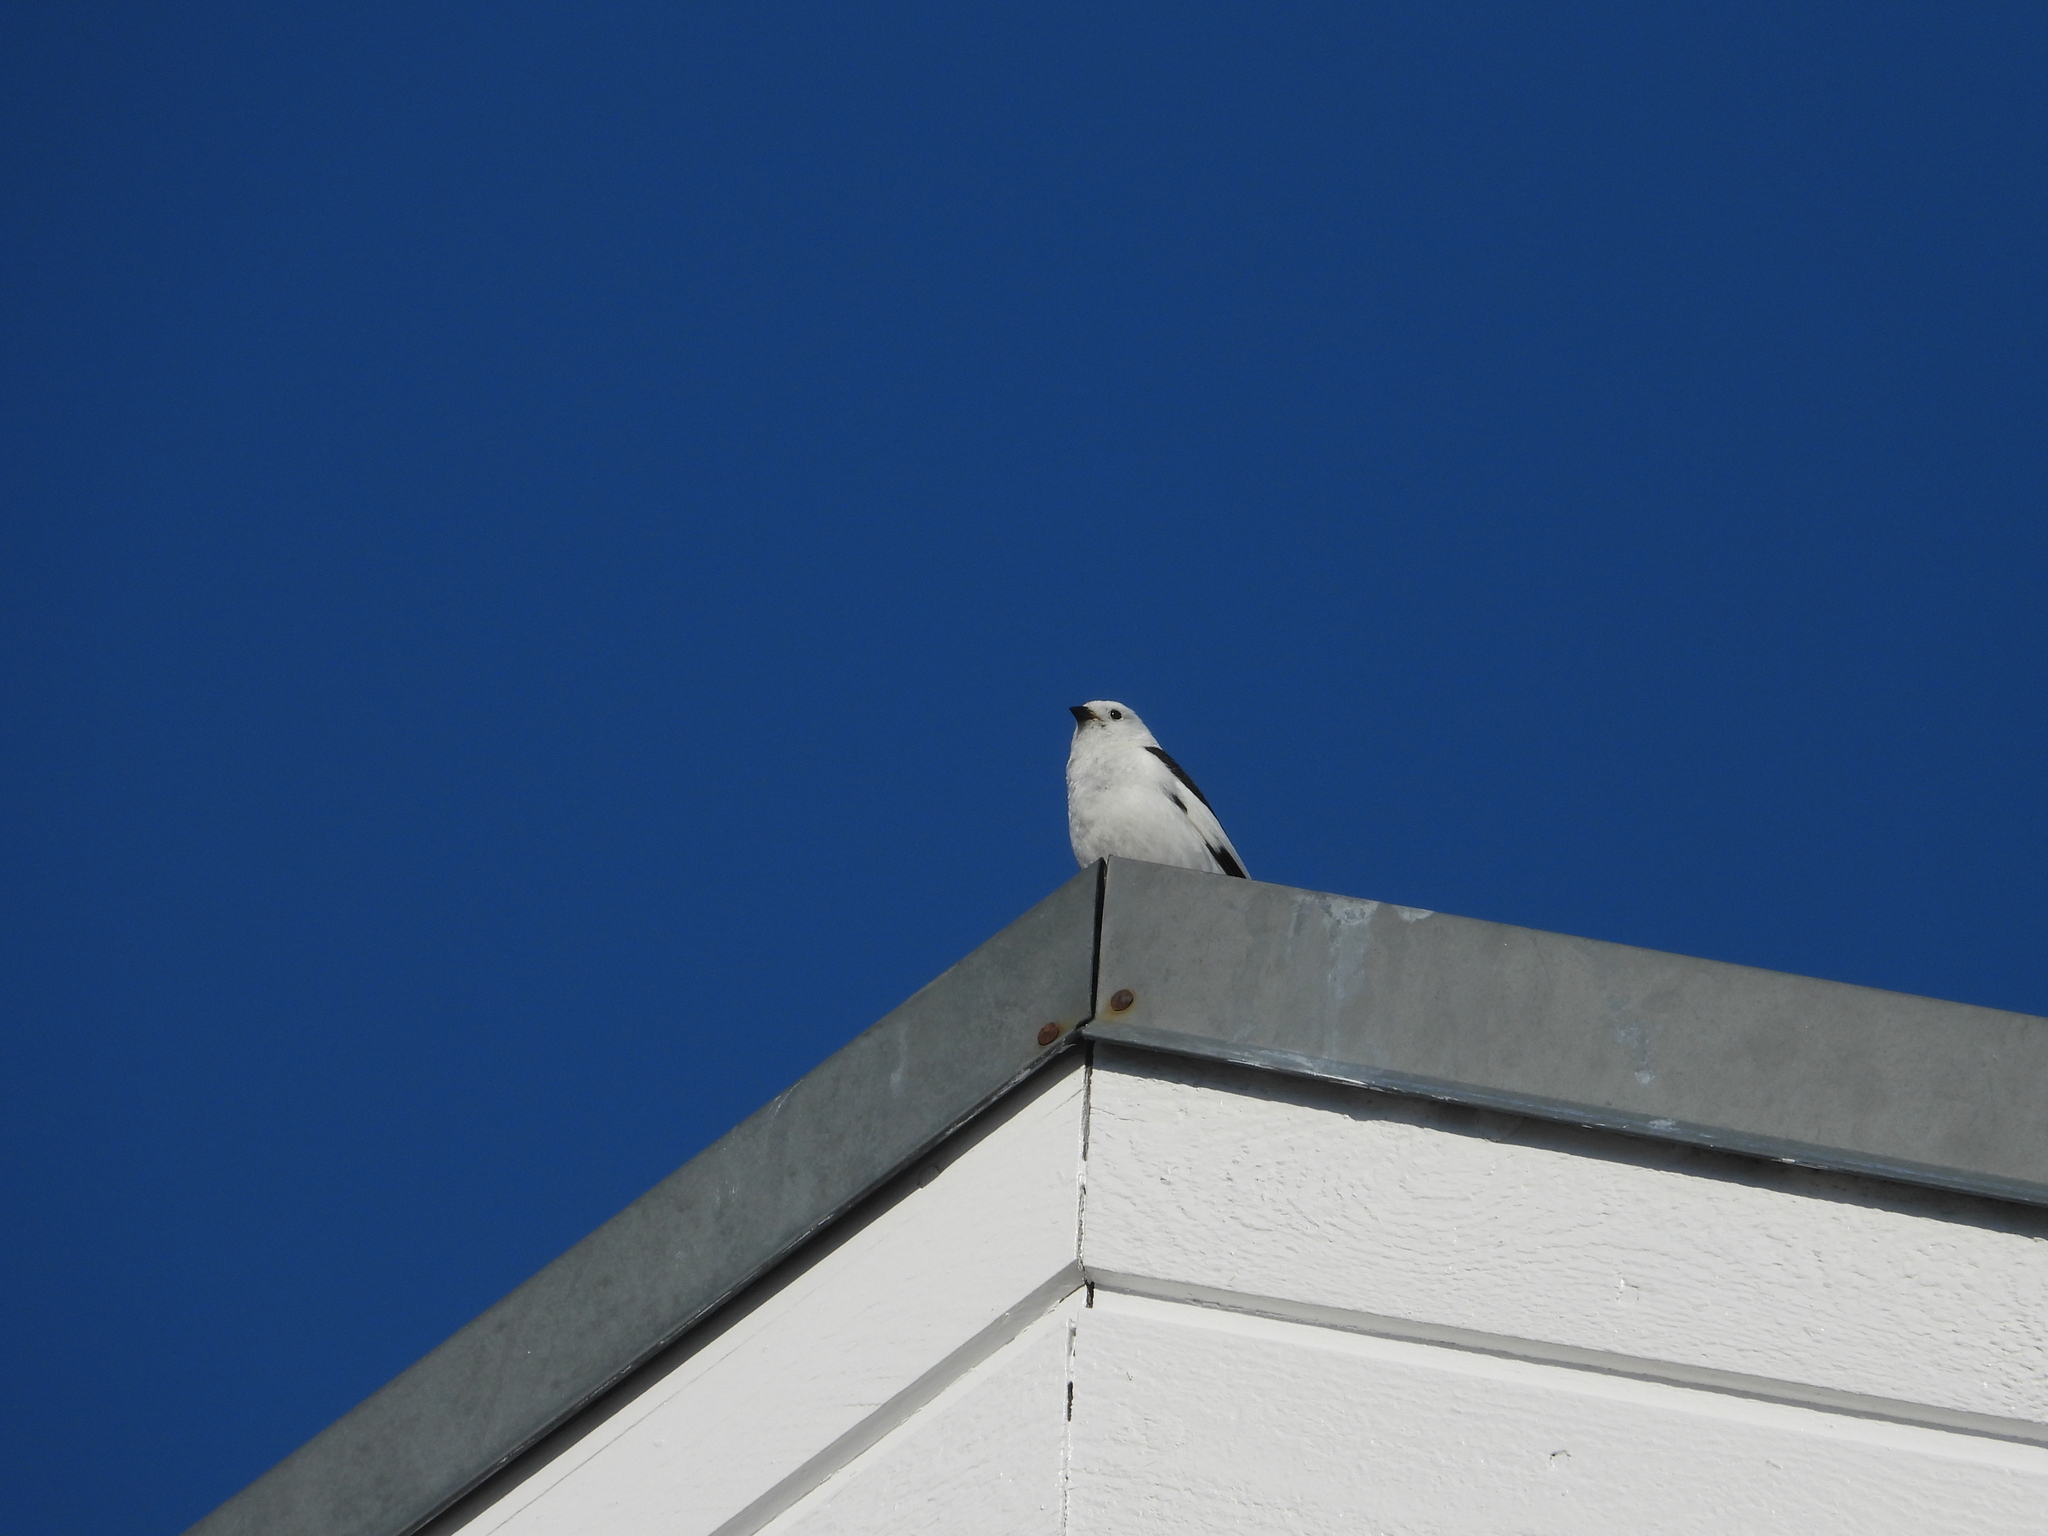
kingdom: Animalia
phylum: Chordata
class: Aves
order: Passeriformes
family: Calcariidae
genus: Plectrophenax
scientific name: Plectrophenax nivalis
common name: Snow bunting
